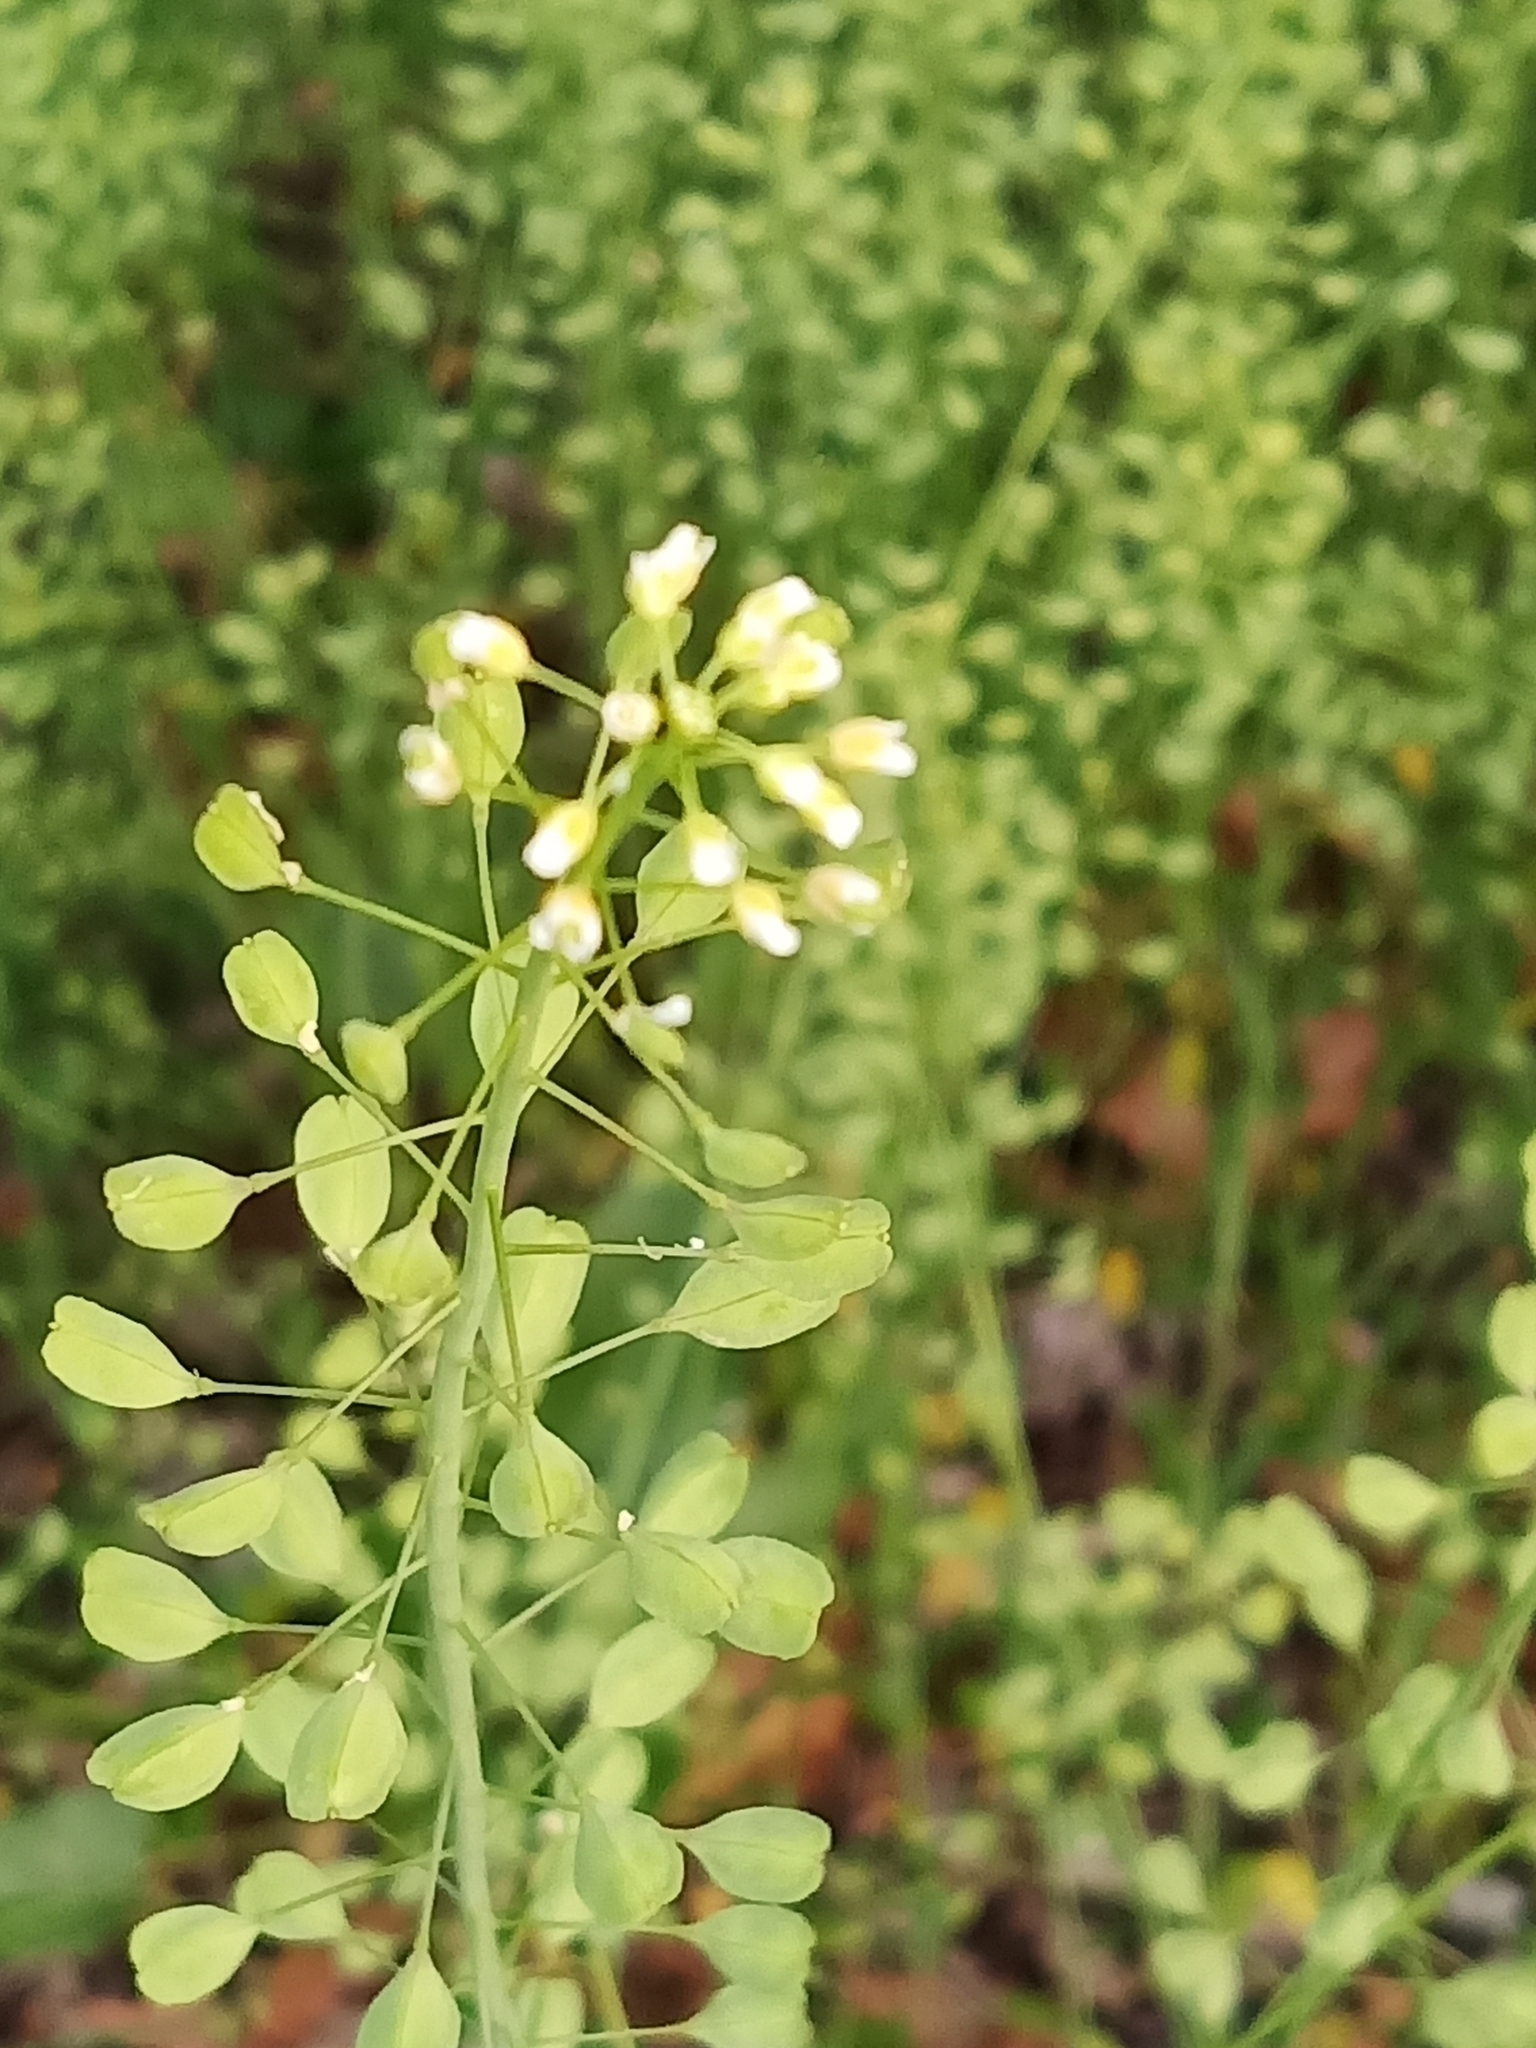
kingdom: Plantae
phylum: Tracheophyta
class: Magnoliopsida
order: Brassicales
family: Brassicaceae
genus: Thlaspi
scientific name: Thlaspi arvense
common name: Field pennycress
